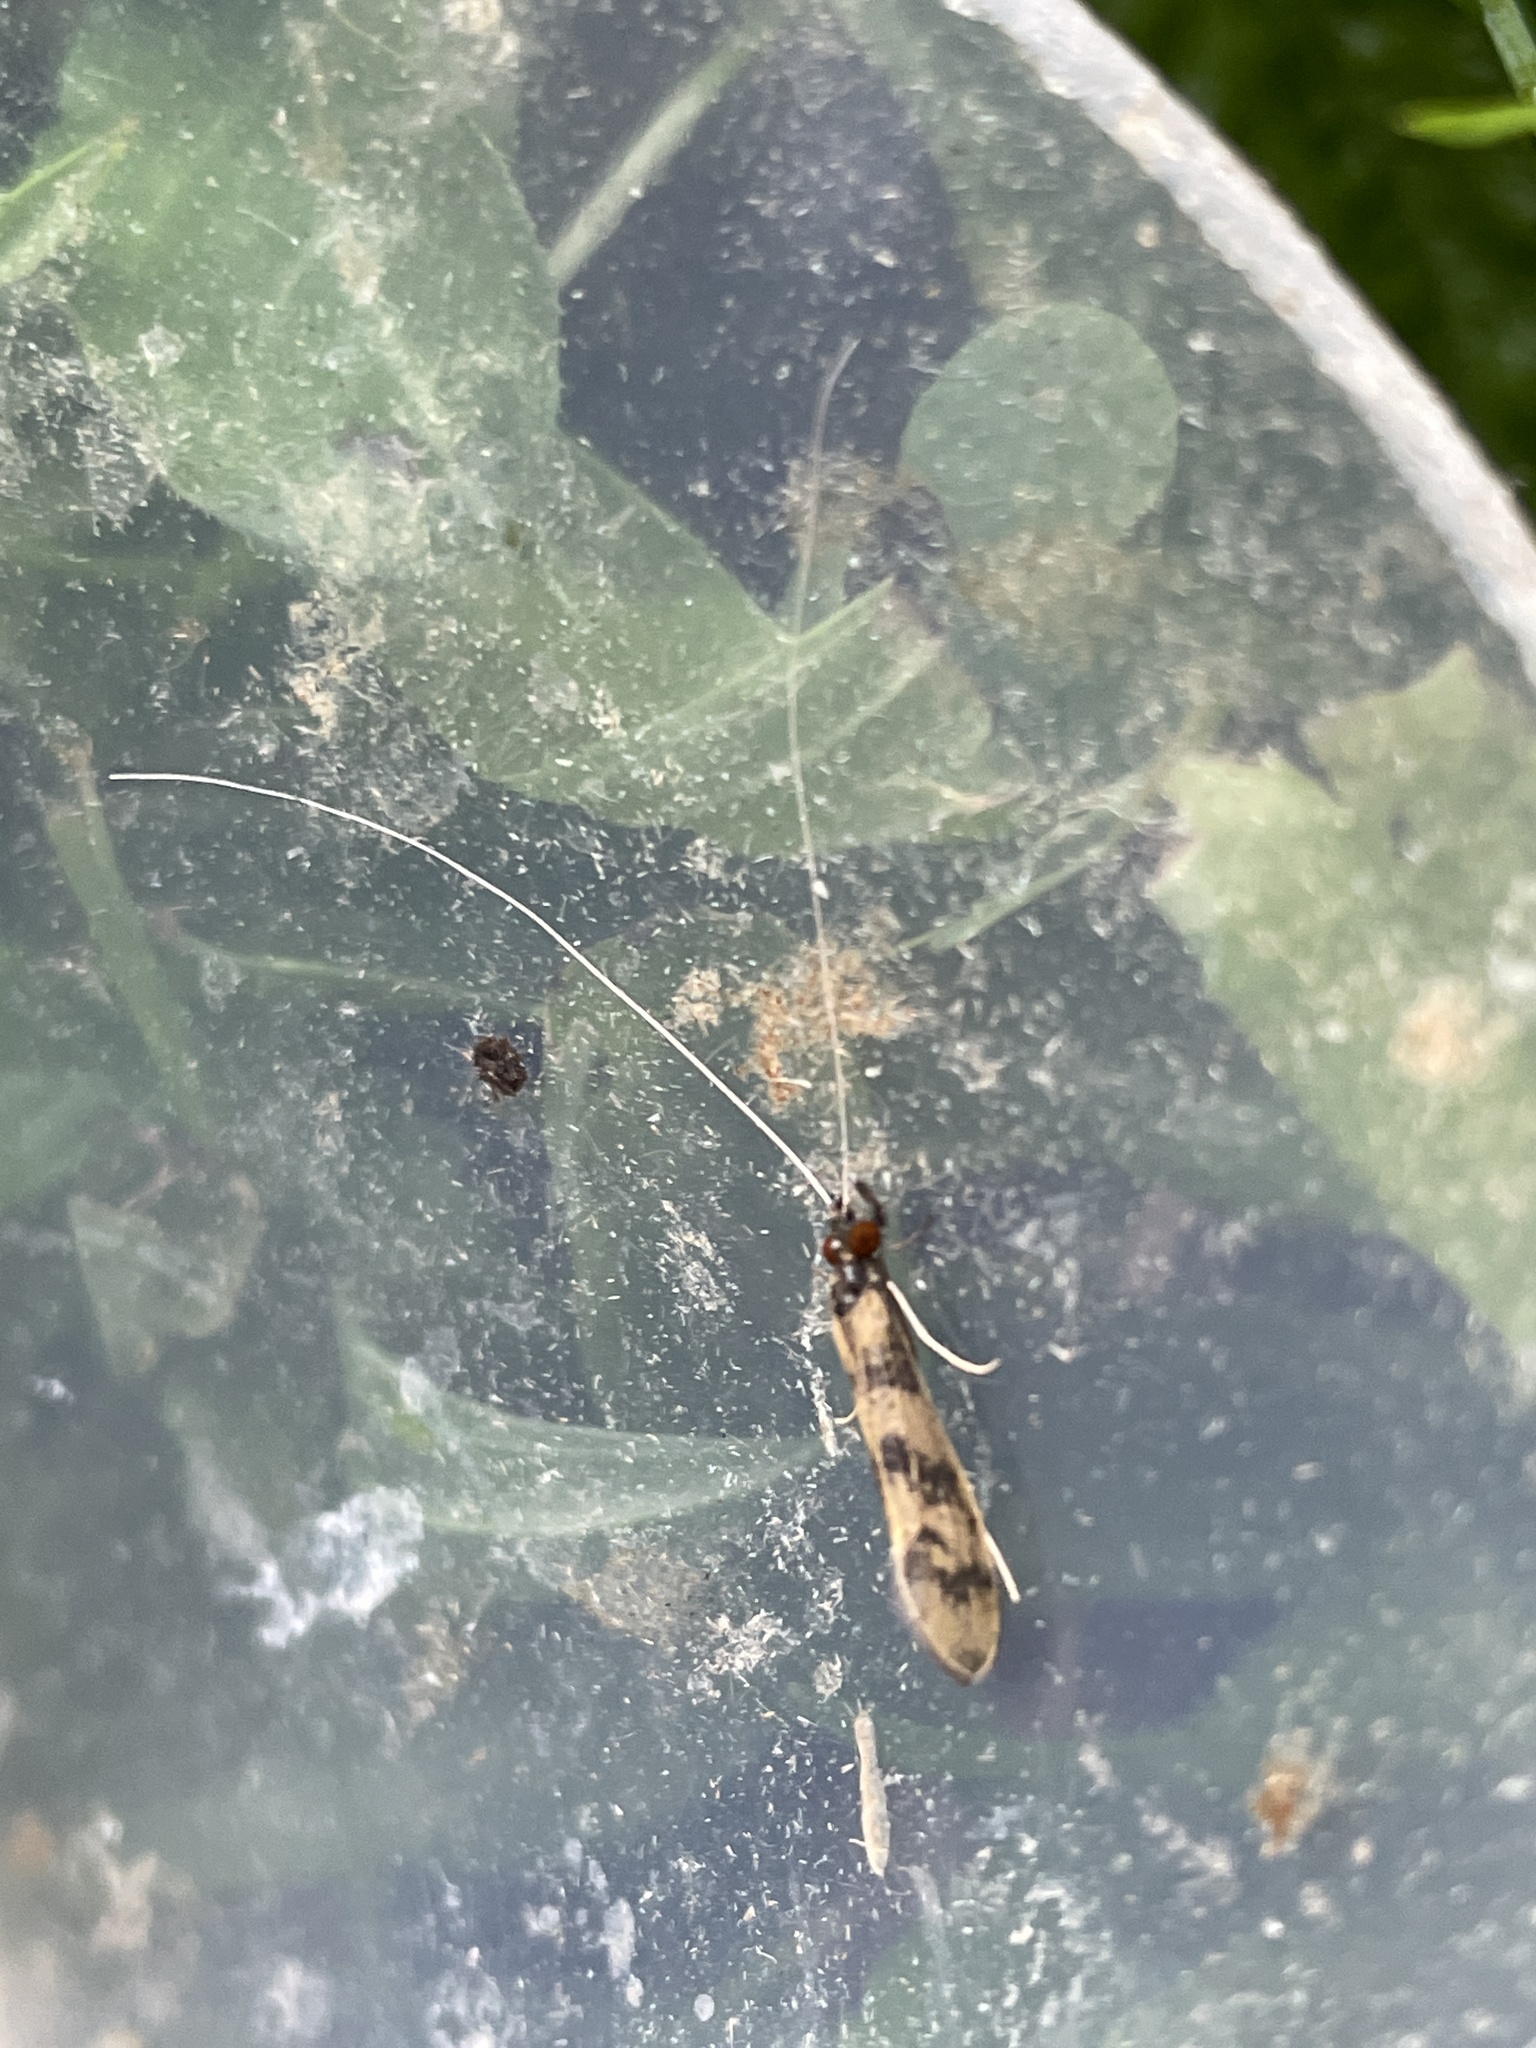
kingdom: Animalia
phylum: Arthropoda
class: Insecta
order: Trichoptera
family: Leptoceridae
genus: Mystacides
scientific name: Mystacides longicornis
